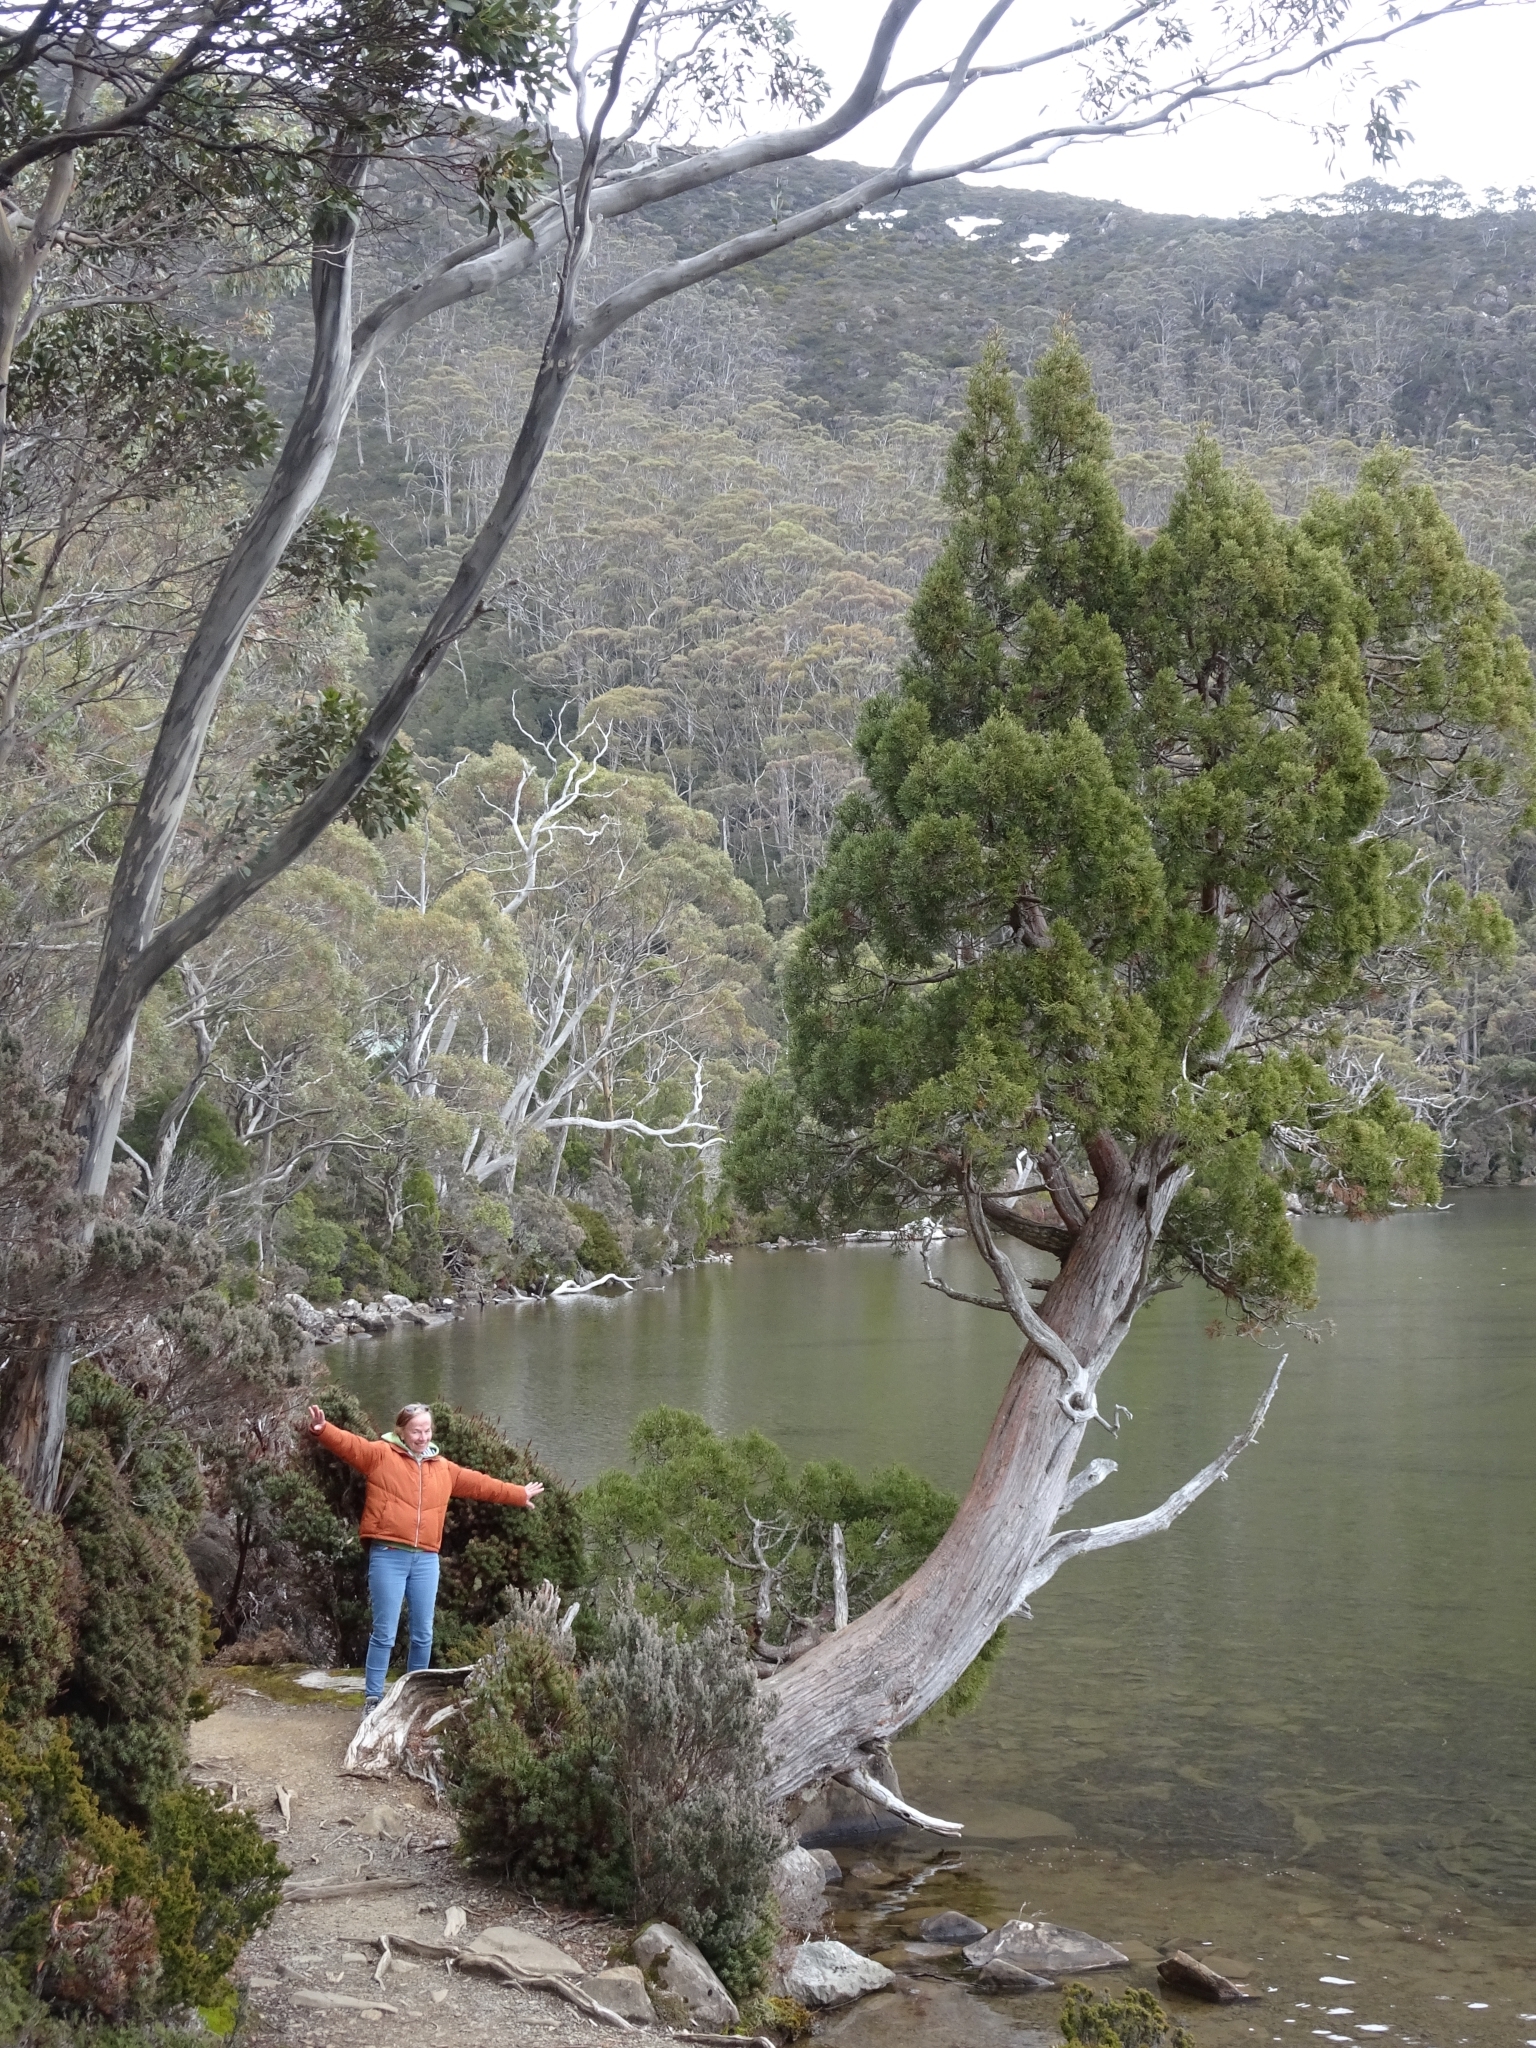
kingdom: Plantae
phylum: Tracheophyta
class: Pinopsida
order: Pinales
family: Cupressaceae
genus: Athrotaxis
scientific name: Athrotaxis cupressoides
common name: Tasmanian pencil pine
